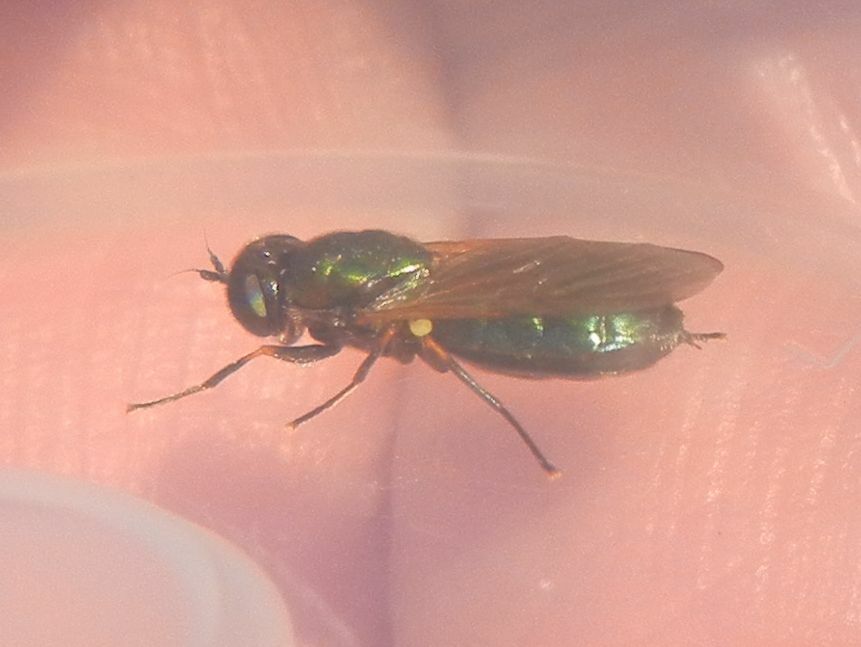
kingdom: Animalia
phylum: Arthropoda
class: Insecta
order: Diptera
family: Stratiomyidae
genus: Chloromyia
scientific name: Chloromyia formosa
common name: Soldier fly
